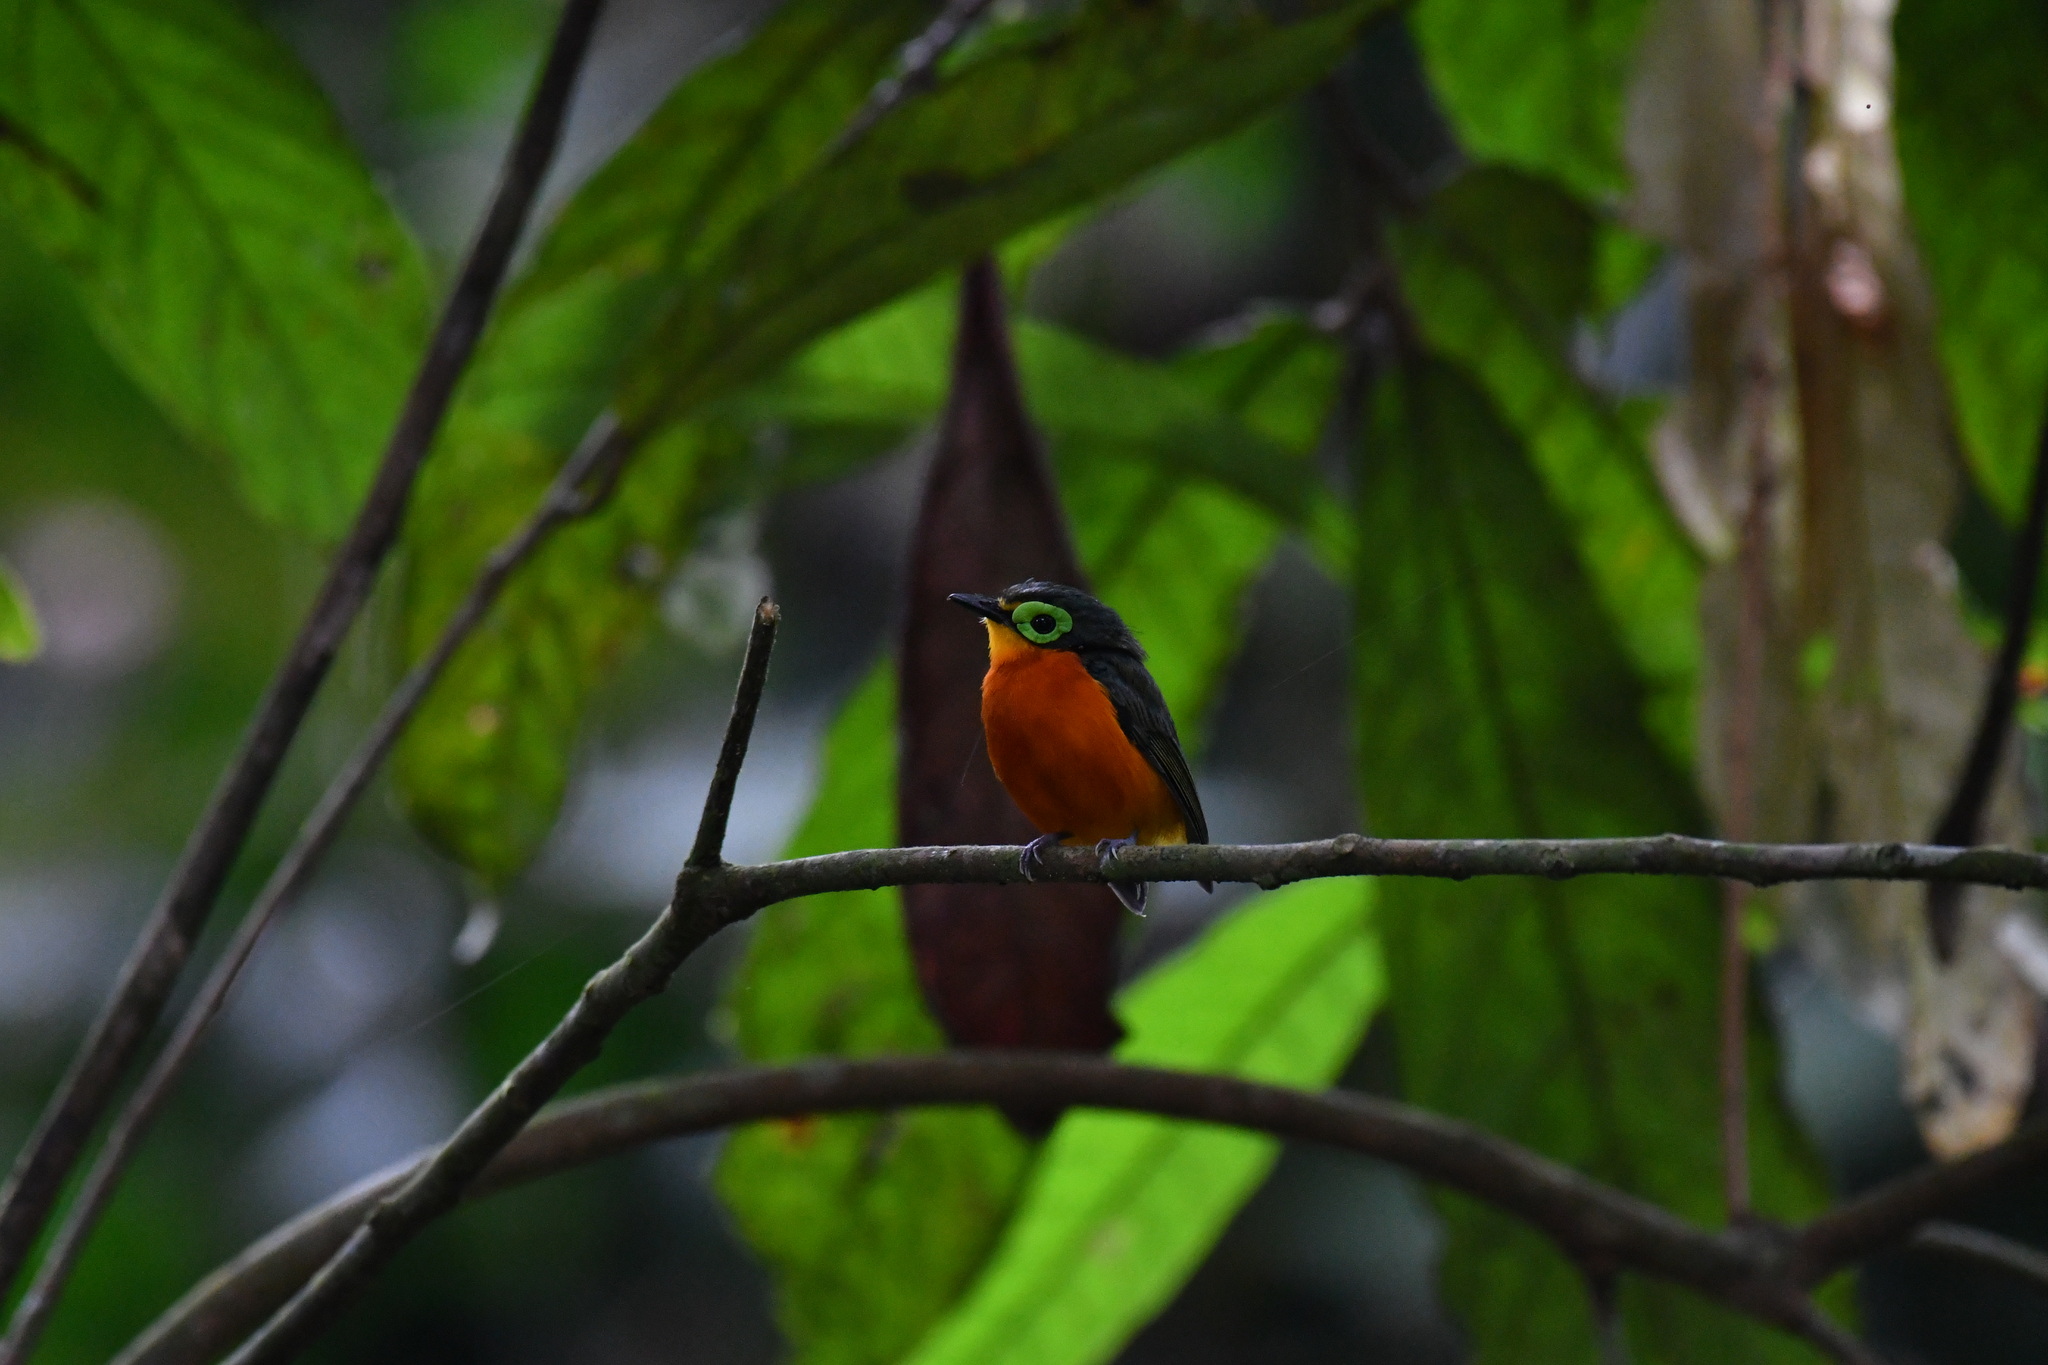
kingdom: Animalia
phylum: Chordata
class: Aves
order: Passeriformes
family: Platysteiridae
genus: Platysteira
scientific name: Platysteira concreta
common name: Yellow-bellied wattle-eye
